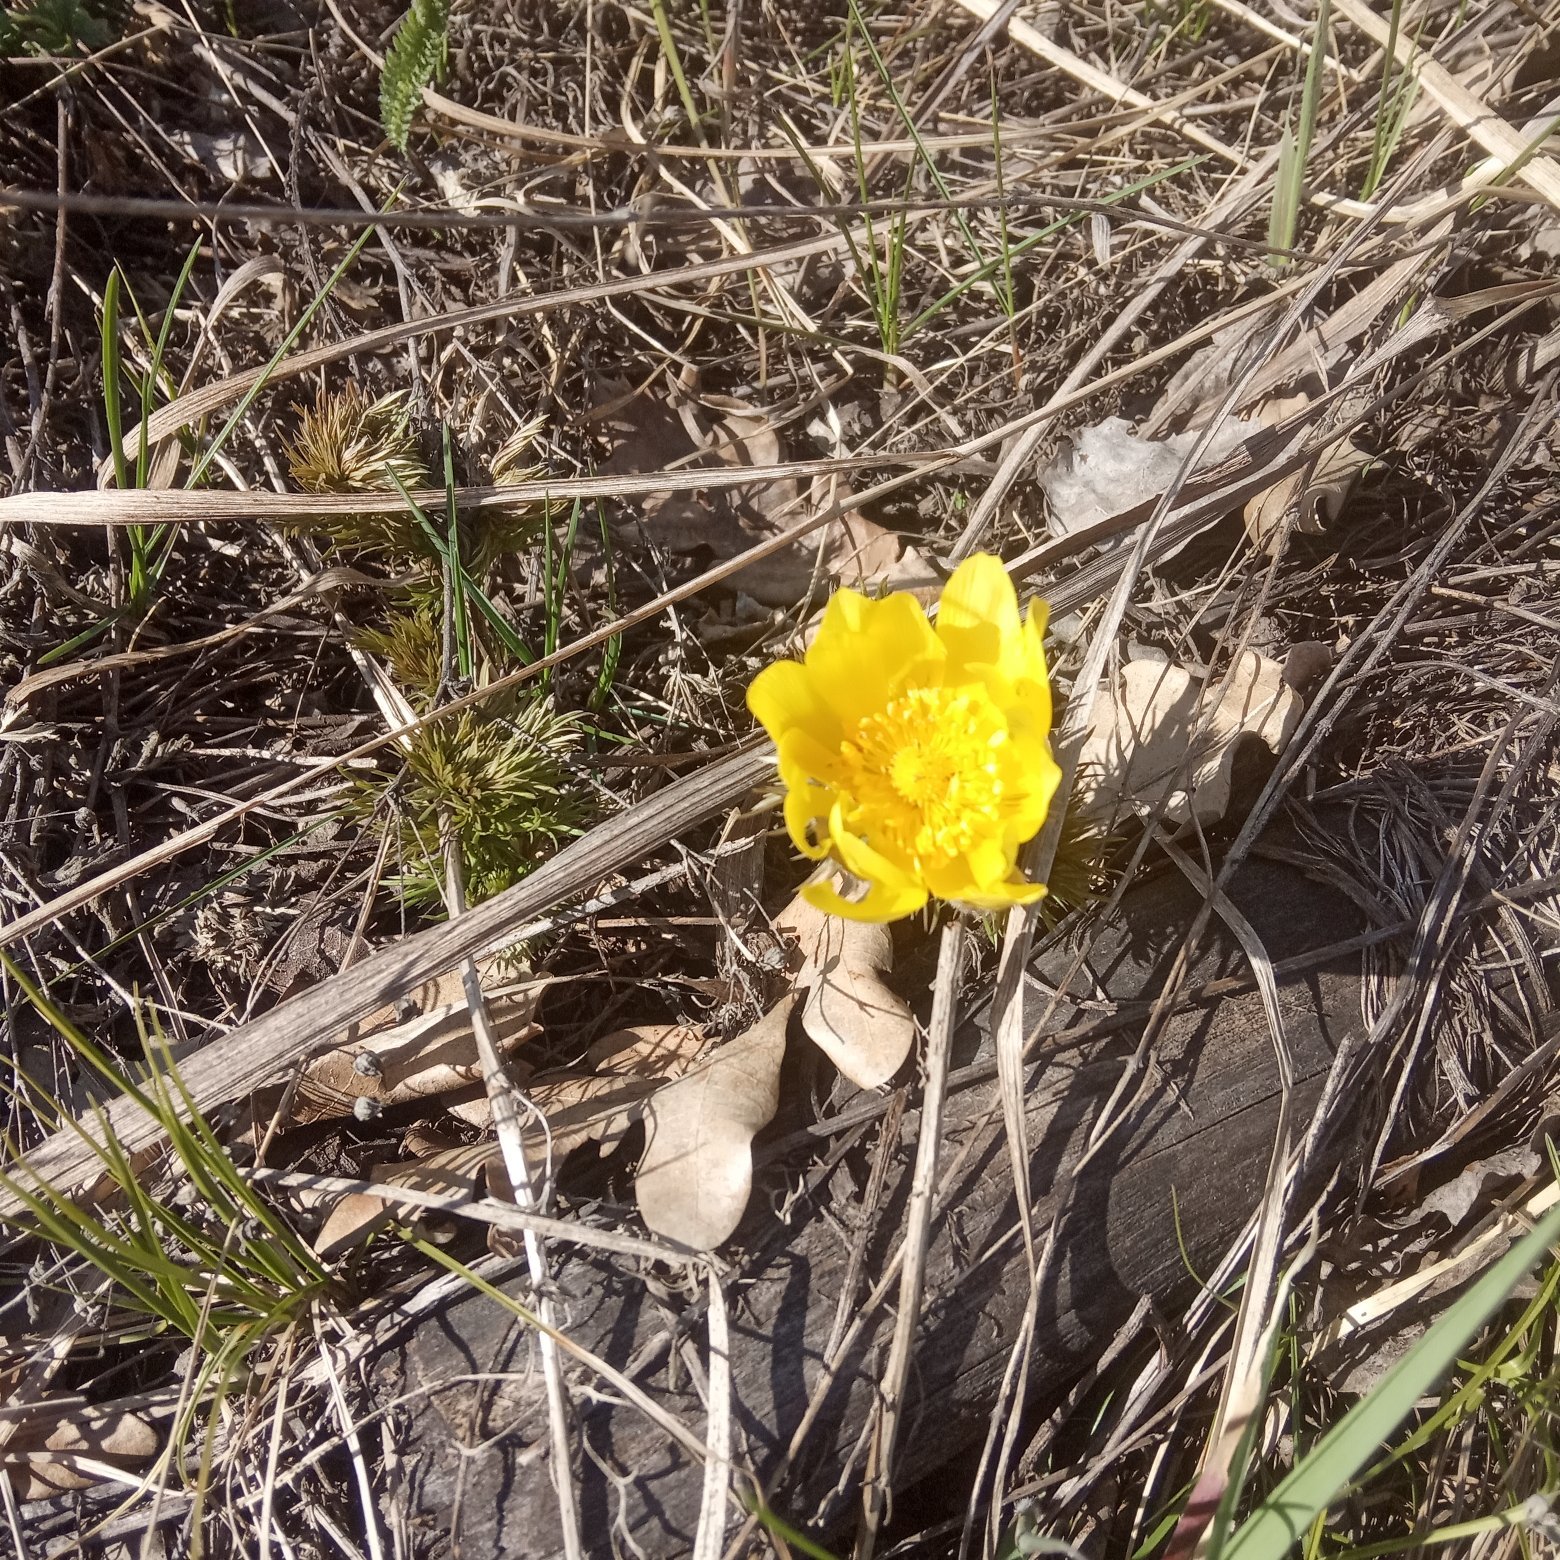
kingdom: Plantae
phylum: Tracheophyta
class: Magnoliopsida
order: Ranunculales
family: Ranunculaceae
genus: Adonis
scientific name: Adonis vernalis
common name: Yellow pheasants-eye
